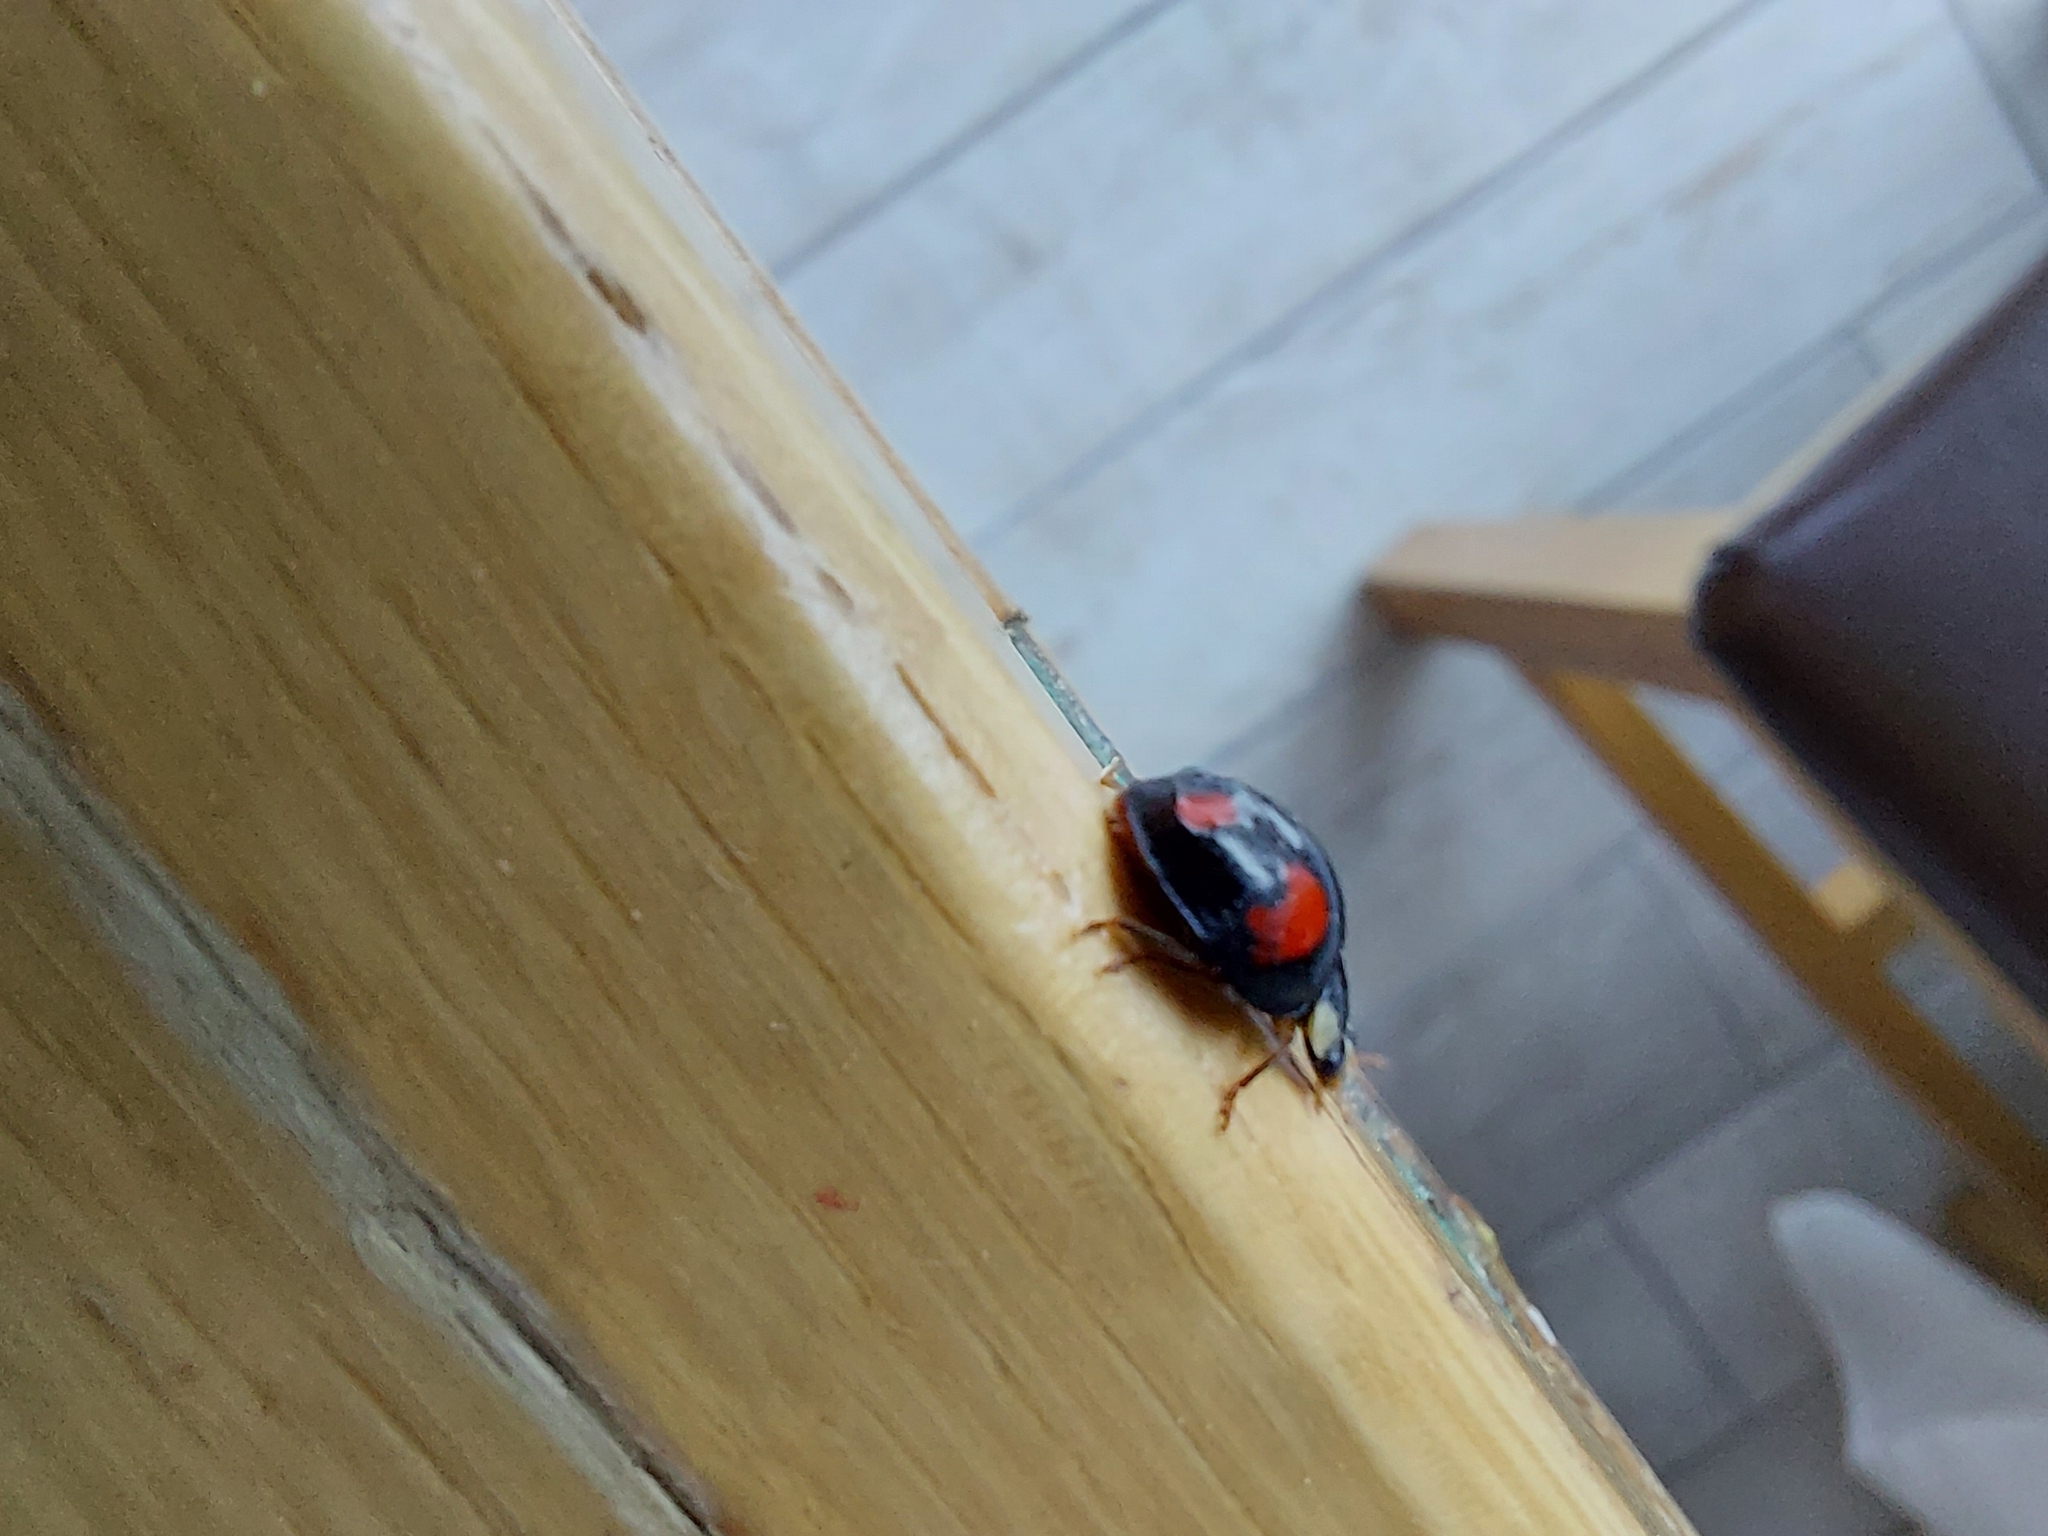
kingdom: Animalia
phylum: Arthropoda
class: Insecta
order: Coleoptera
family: Coccinellidae
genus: Harmonia
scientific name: Harmonia axyridis
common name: Harlequin ladybird
